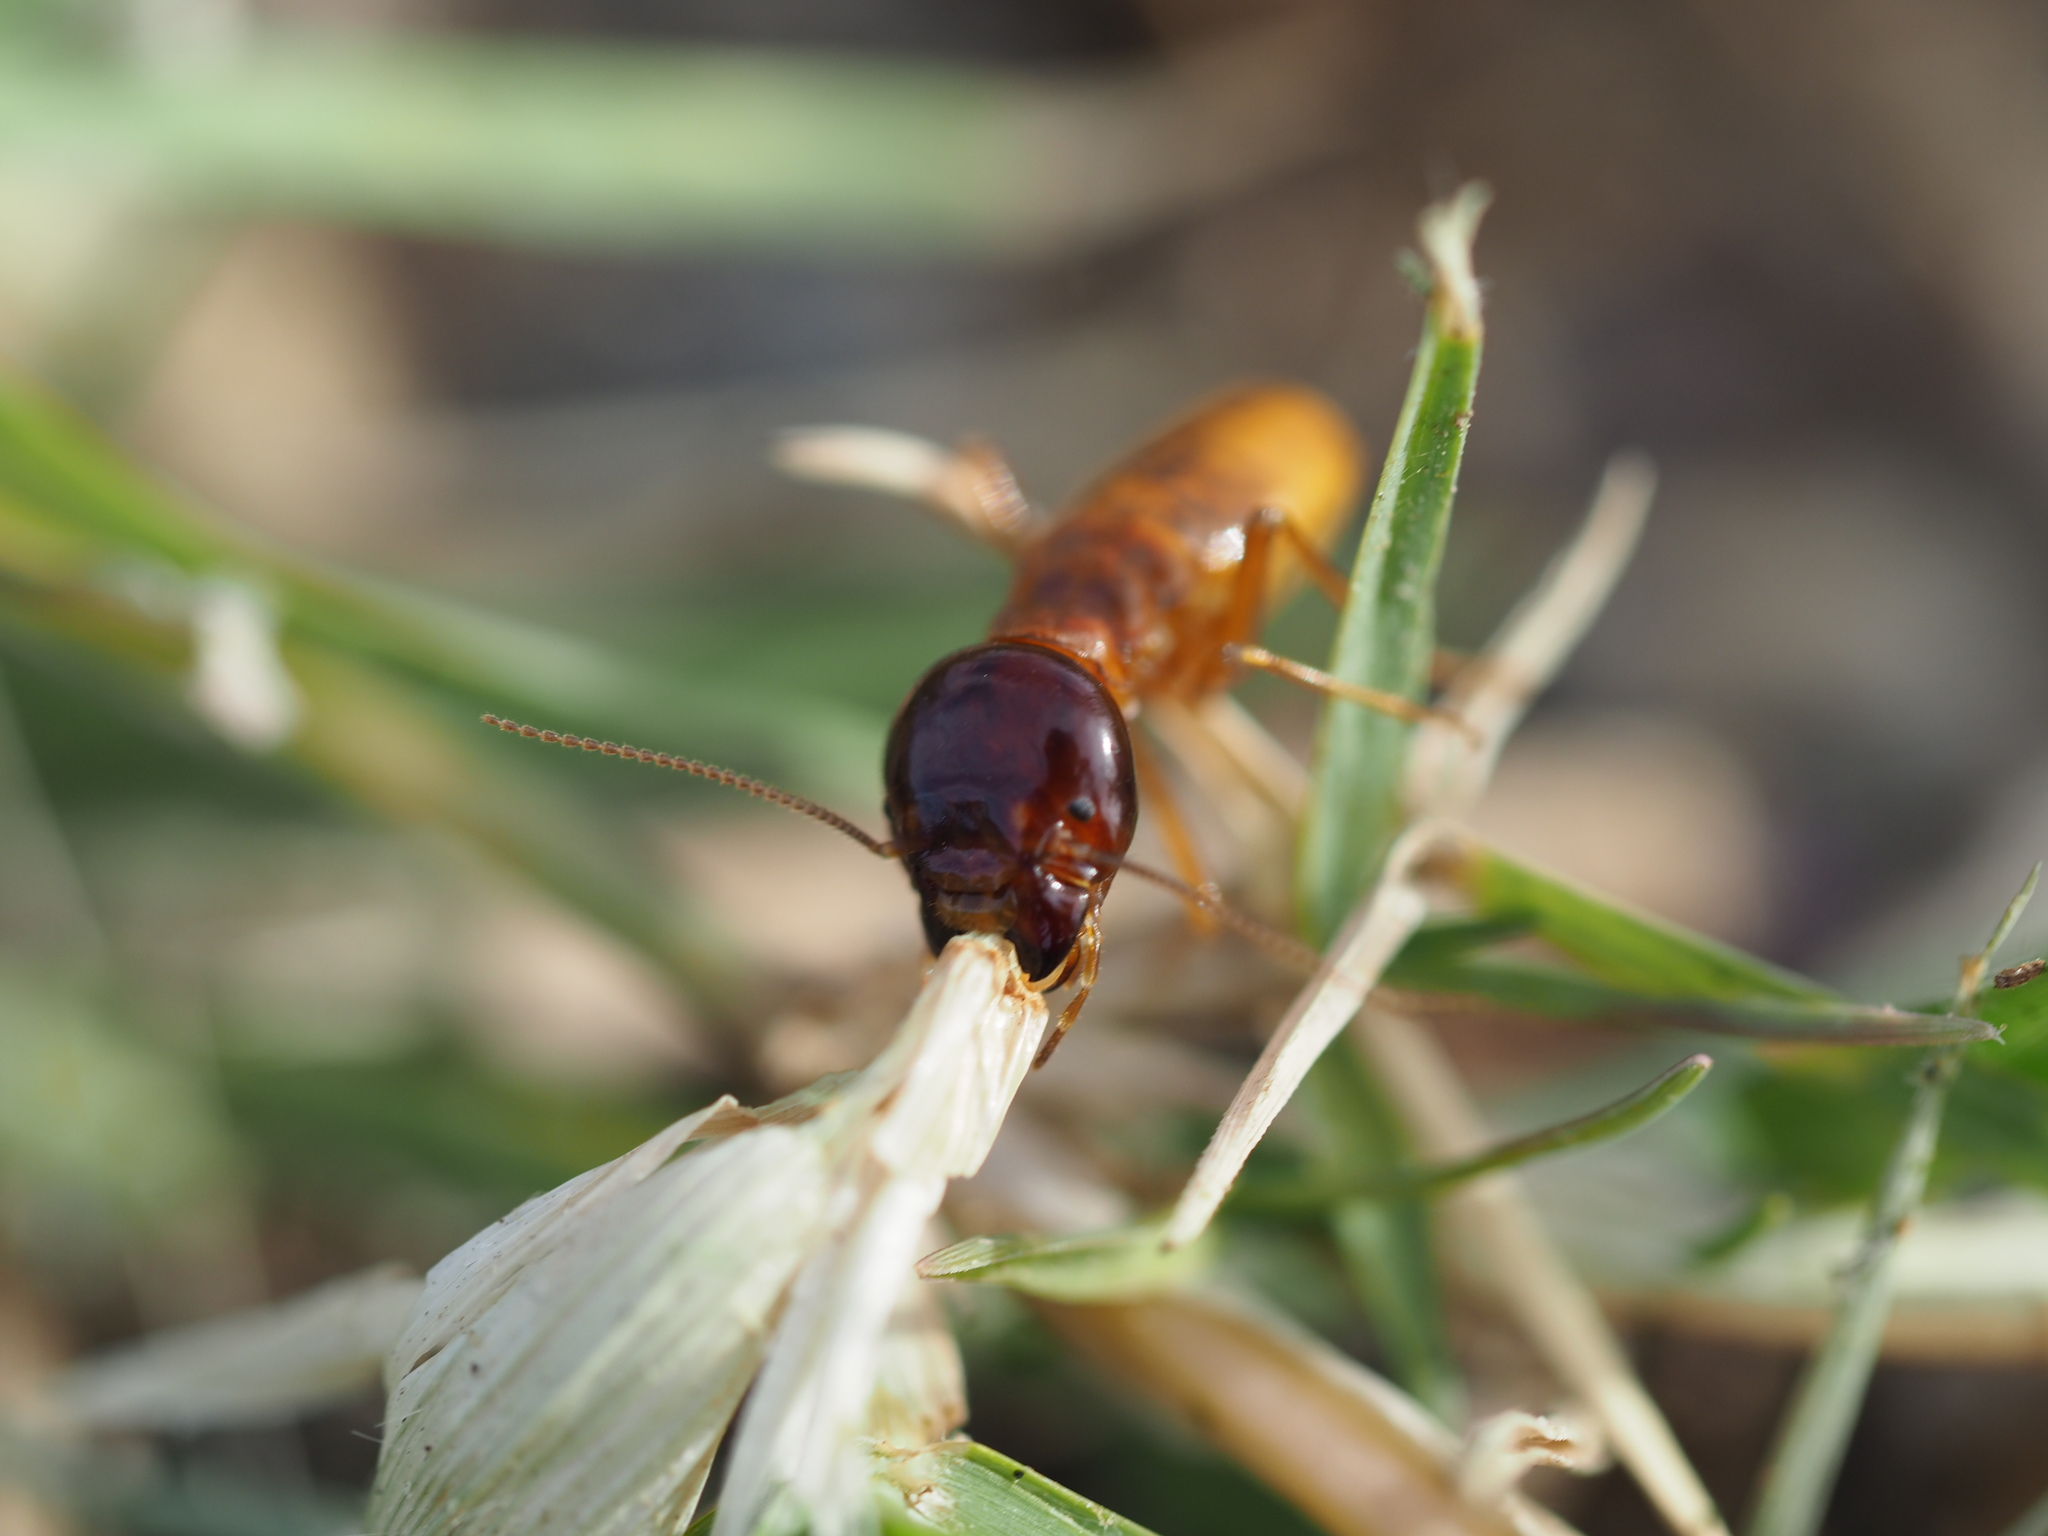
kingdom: Animalia
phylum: Arthropoda
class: Insecta
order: Blattodea
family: Hodotermitidae
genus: Microhodotermes
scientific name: Microhodotermes viator
